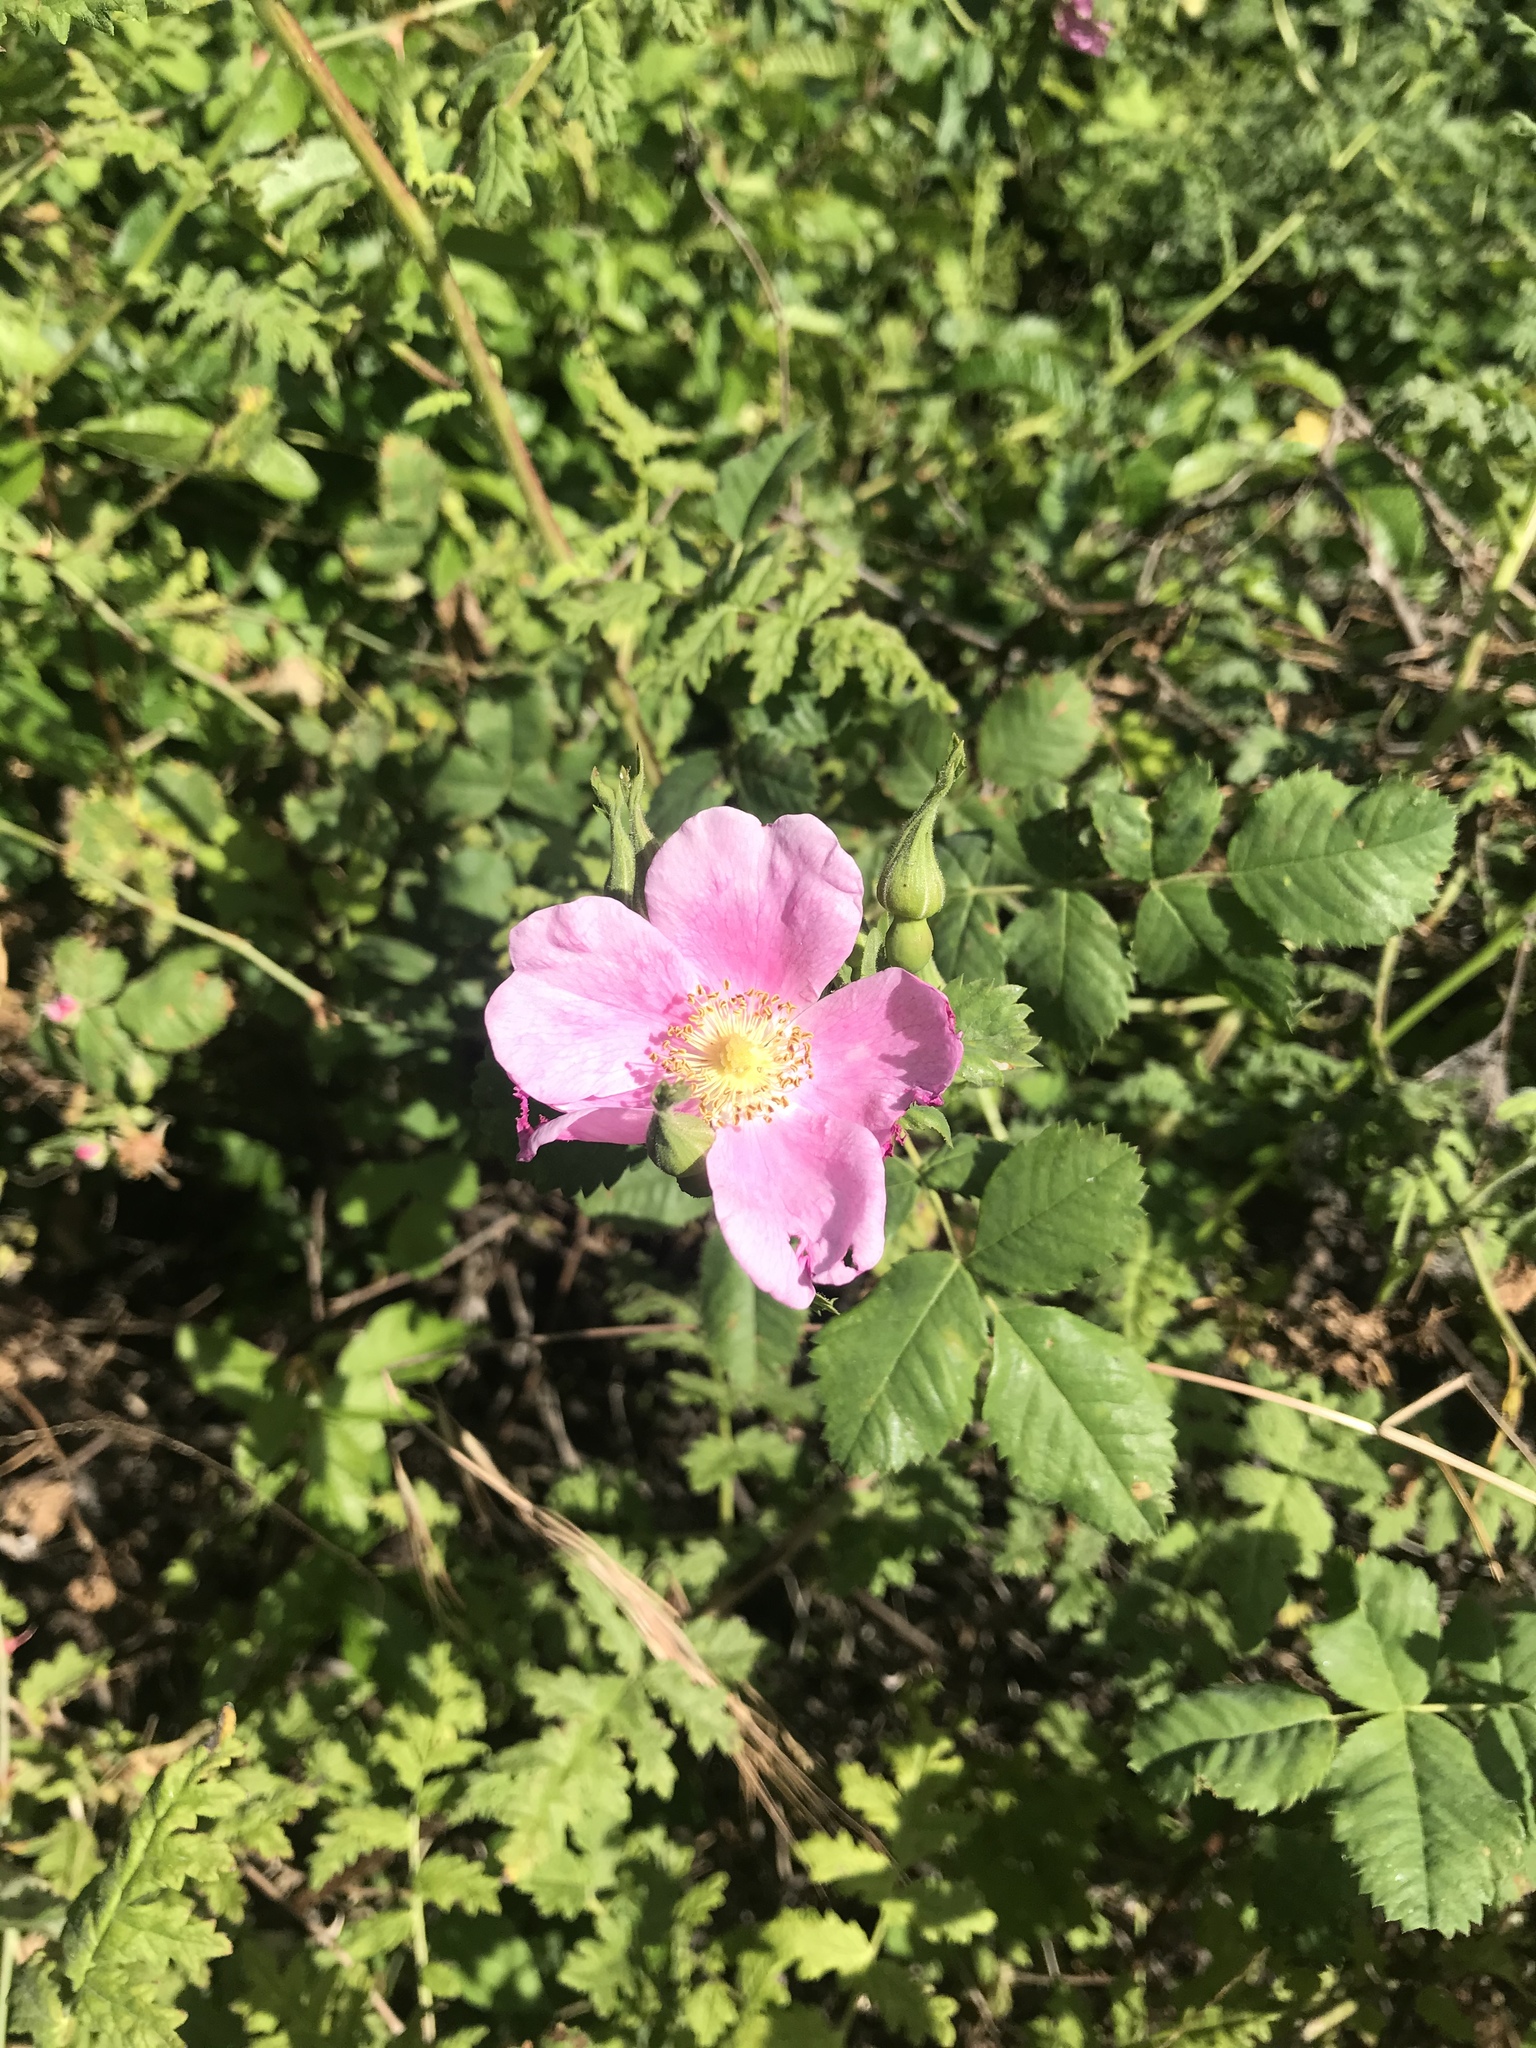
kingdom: Plantae
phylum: Tracheophyta
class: Magnoliopsida
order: Rosales
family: Rosaceae
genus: Rosa
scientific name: Rosa californica
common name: California rose
